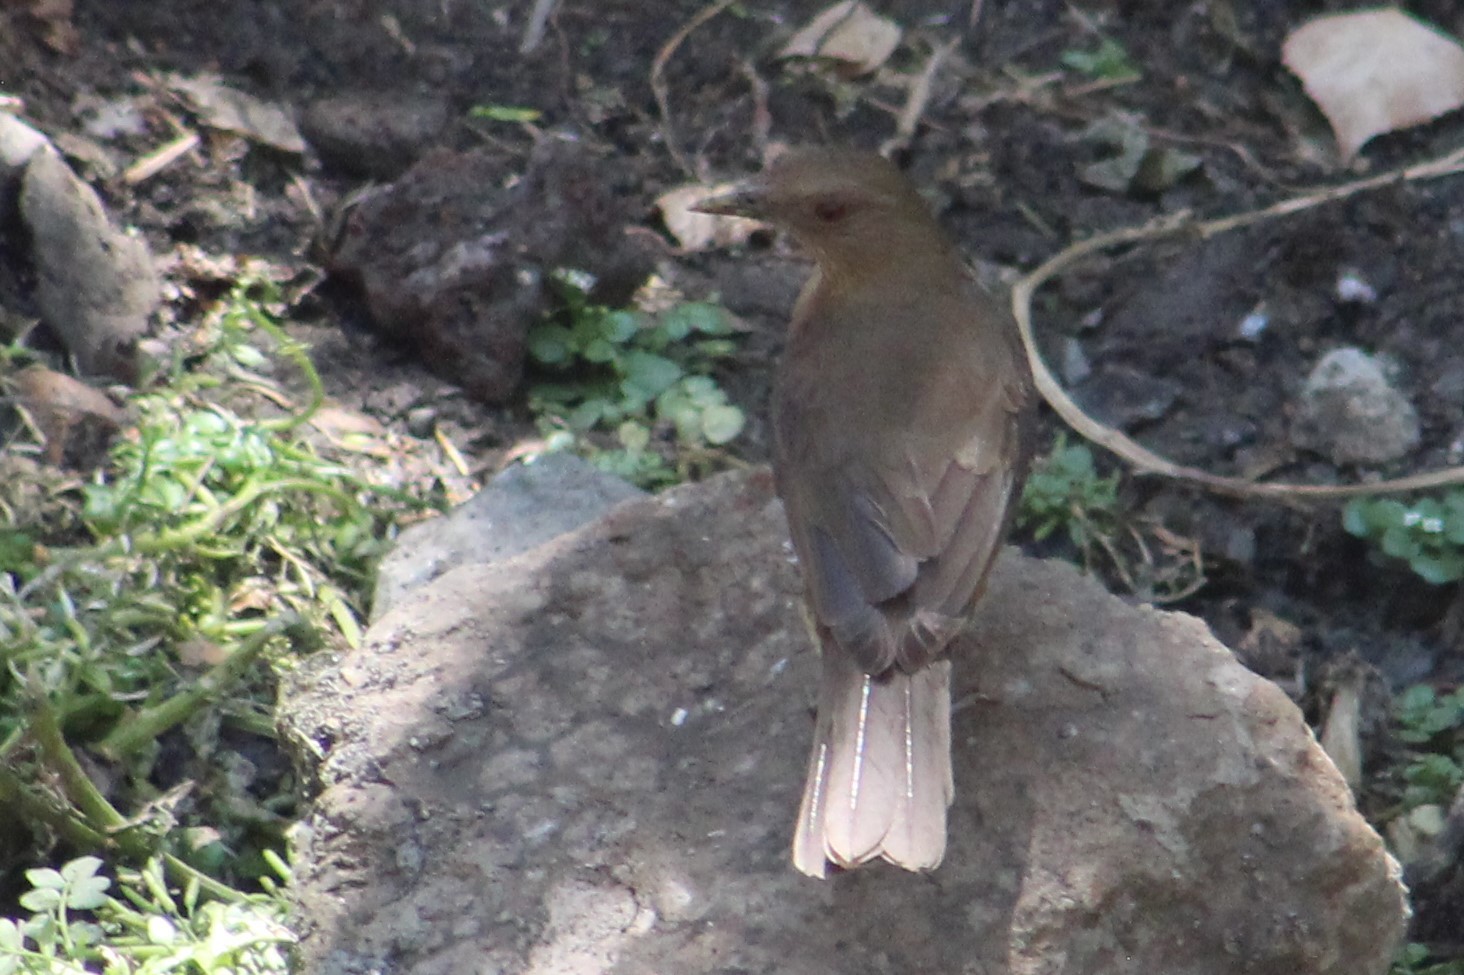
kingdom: Animalia
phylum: Chordata
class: Aves
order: Passeriformes
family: Turdidae
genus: Turdus
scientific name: Turdus grayi
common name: Clay-colored thrush
